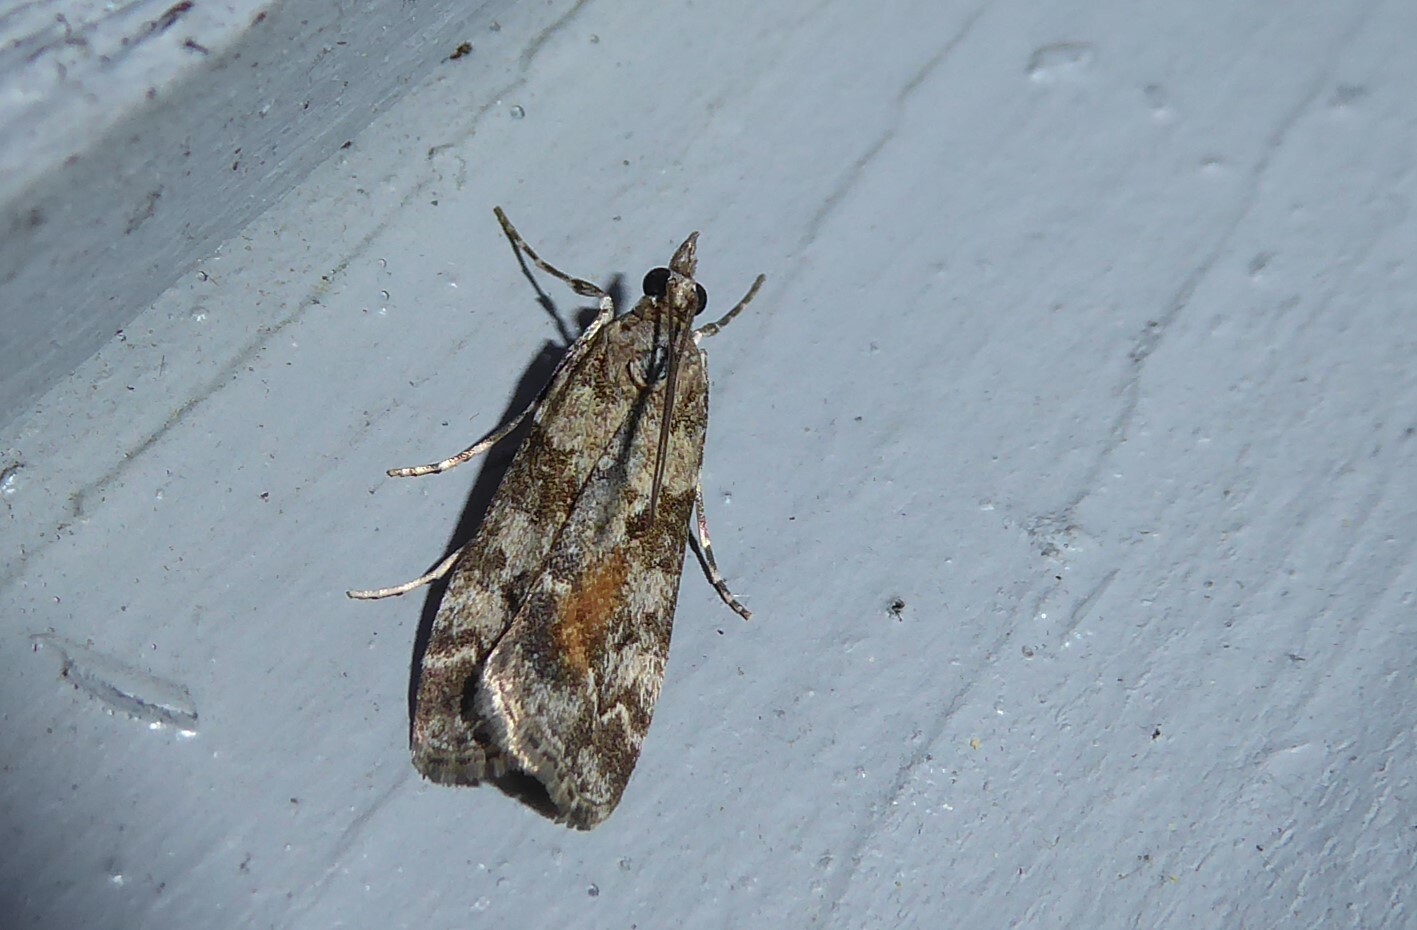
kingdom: Animalia
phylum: Arthropoda
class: Insecta
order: Lepidoptera
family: Crambidae
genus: Eudonia
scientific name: Eudonia submarginalis
